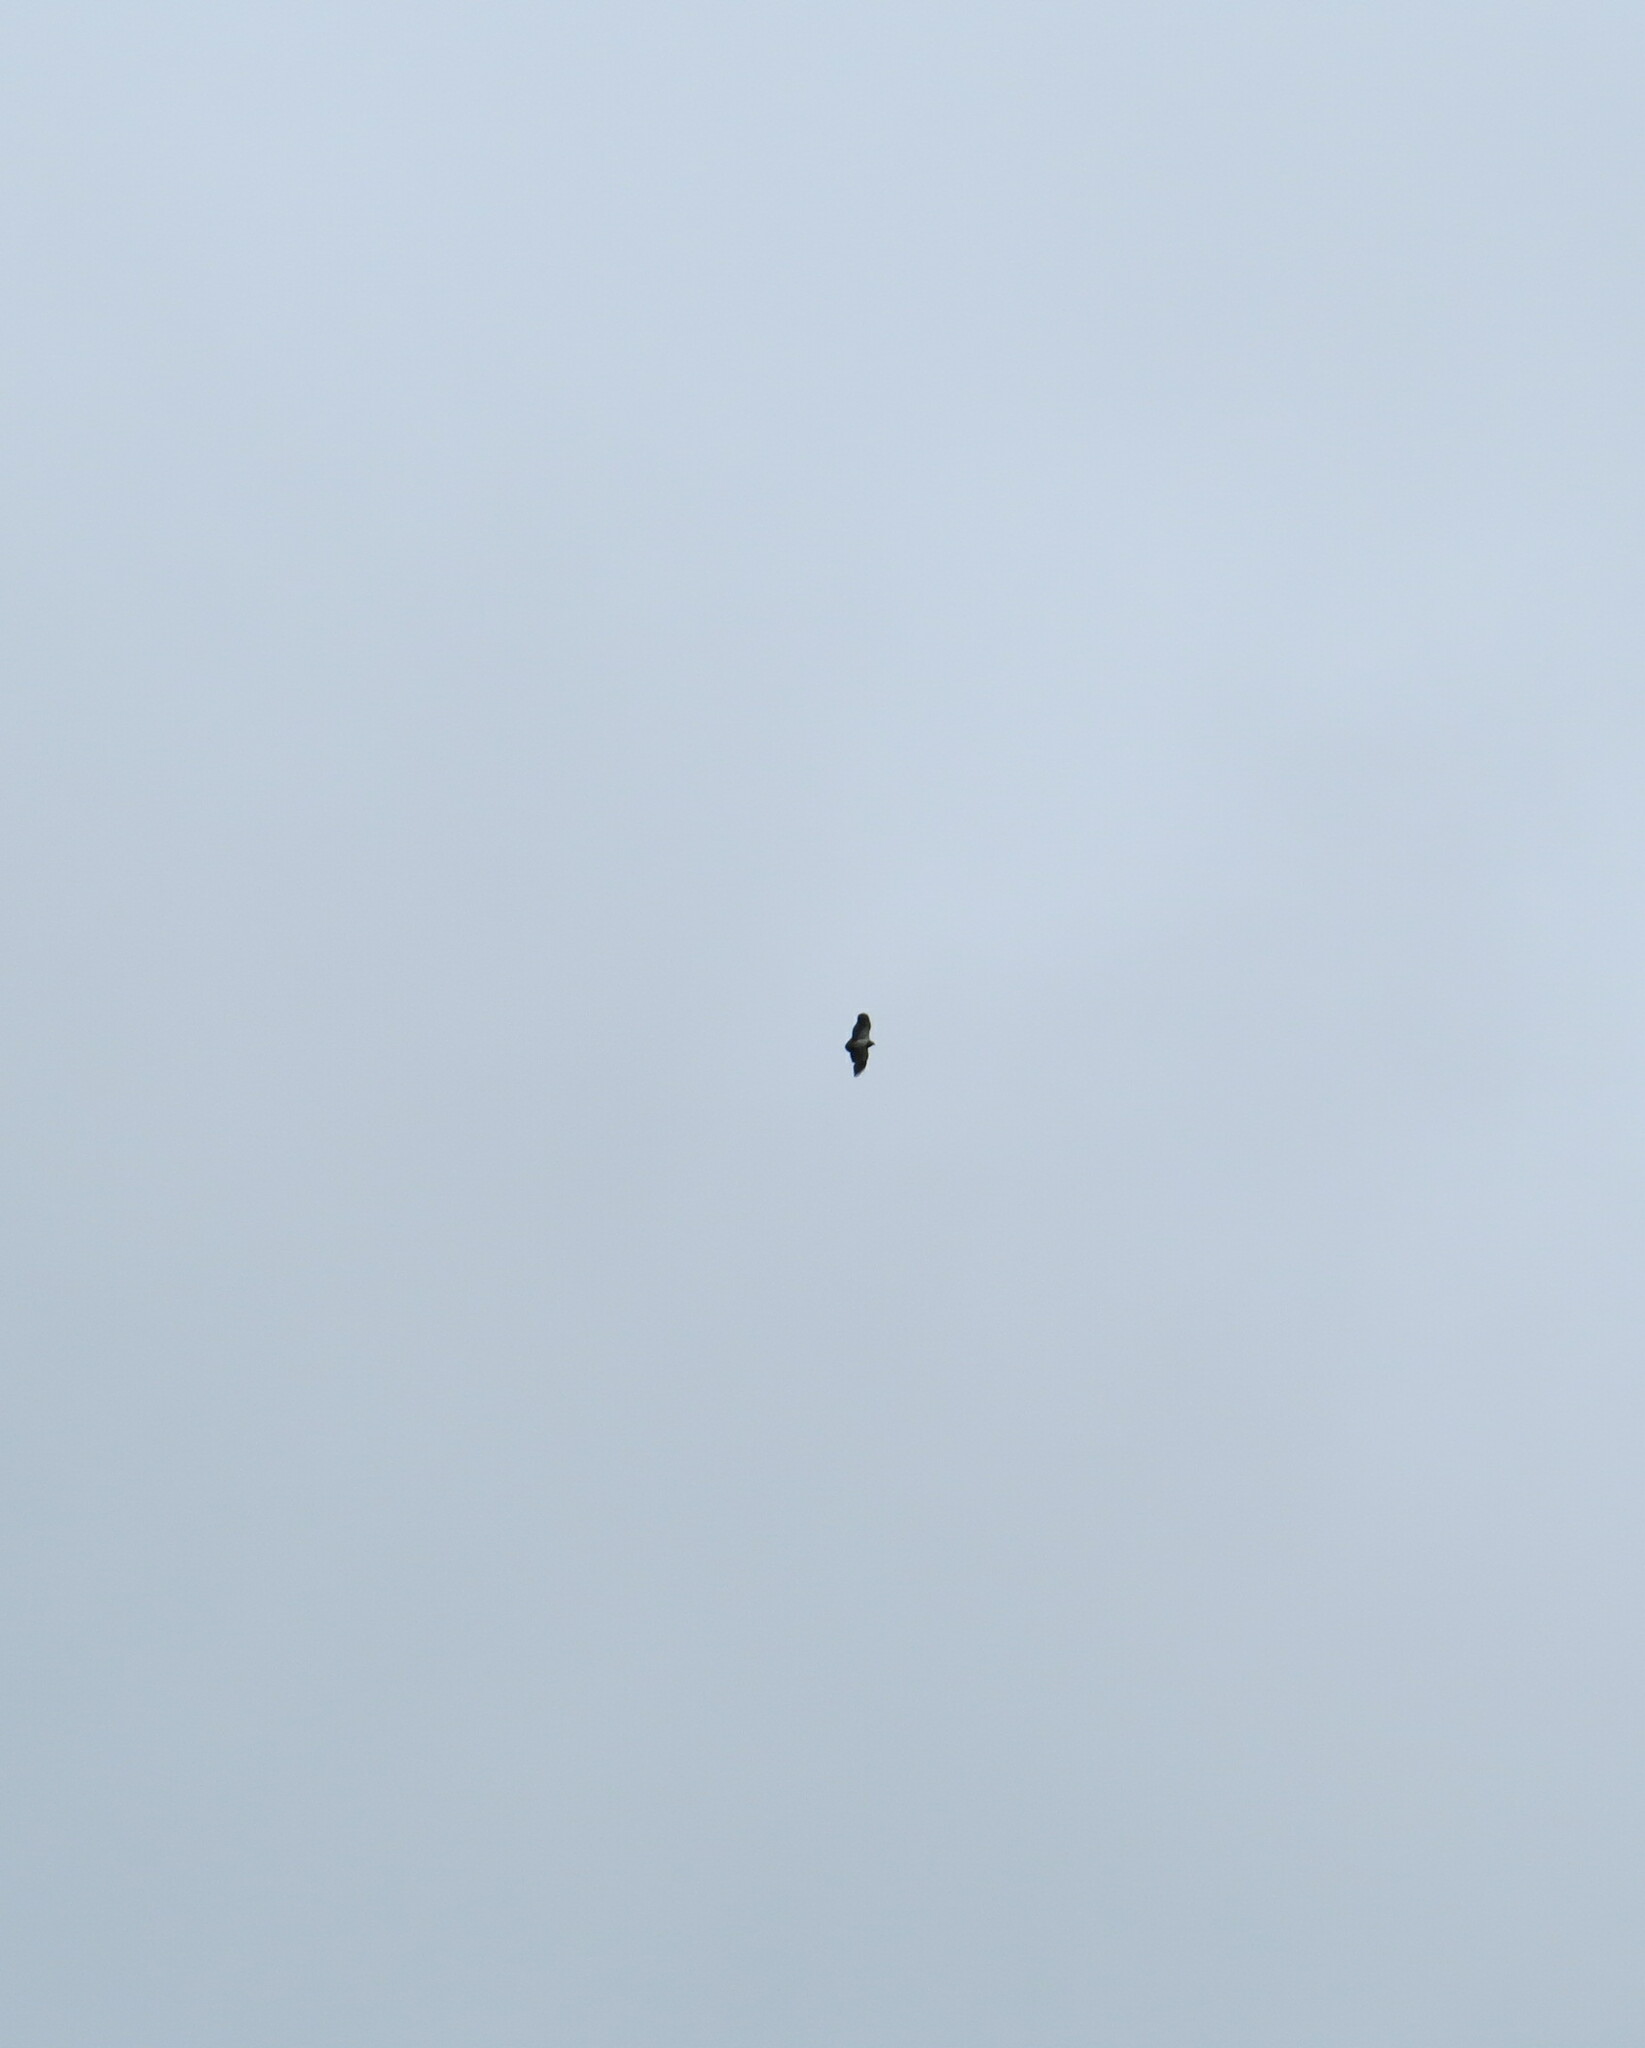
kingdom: Animalia
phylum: Chordata
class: Aves
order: Accipitriformes
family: Accipitridae
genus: Geranoaetus
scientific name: Geranoaetus melanoleucus
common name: Black-chested buzzard-eagle
